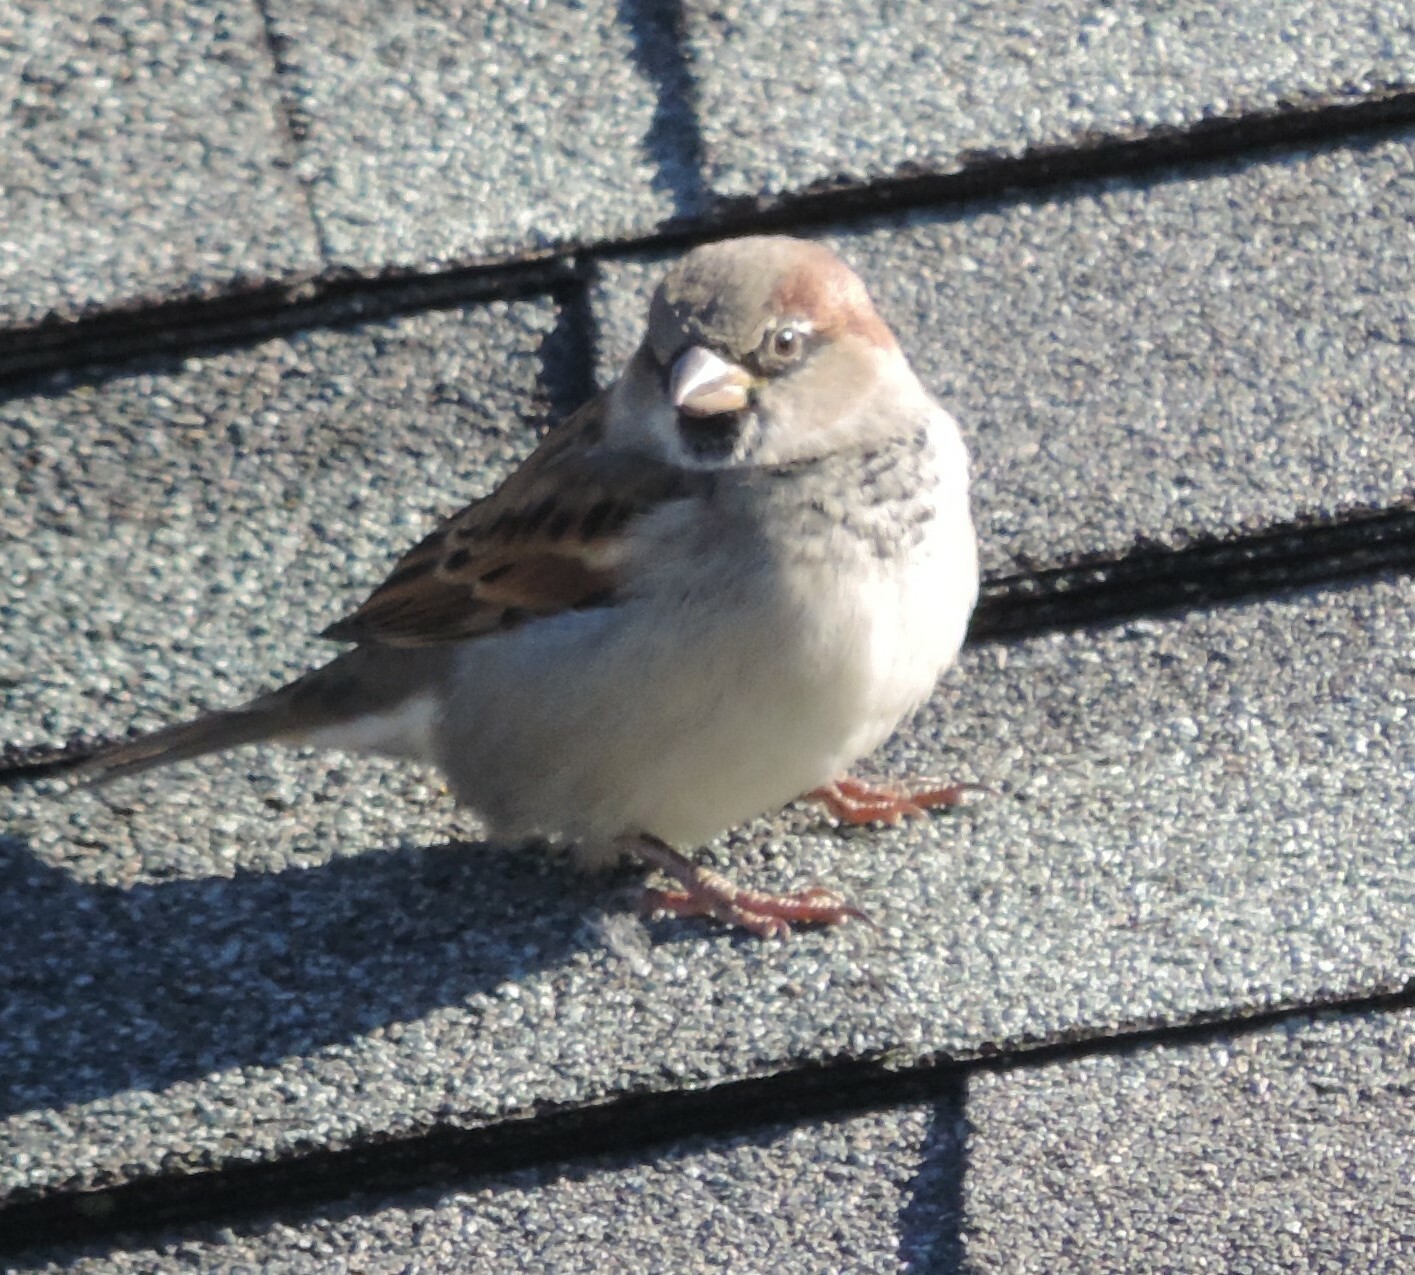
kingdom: Animalia
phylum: Chordata
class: Aves
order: Passeriformes
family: Passeridae
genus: Passer
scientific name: Passer domesticus
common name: House sparrow
